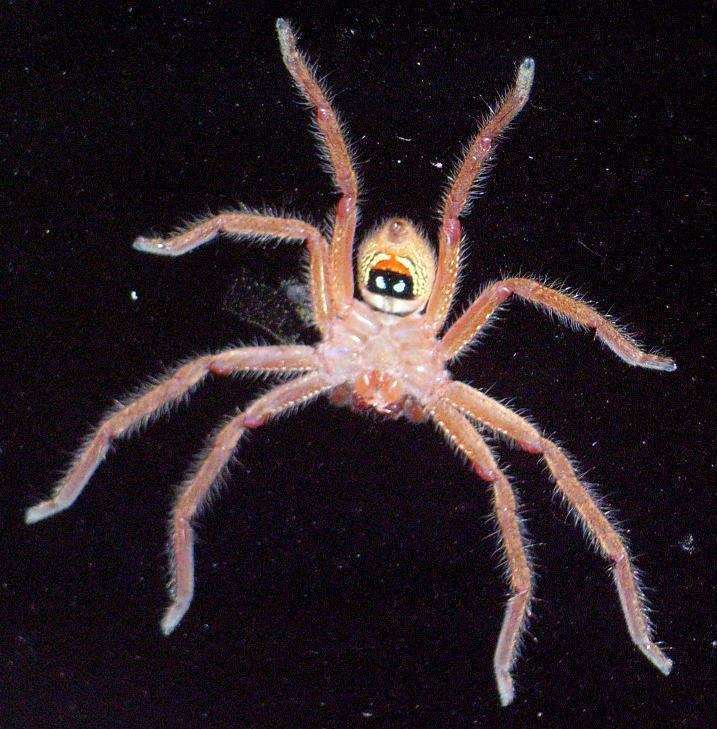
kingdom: Animalia
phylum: Arthropoda
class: Arachnida
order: Araneae
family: Sparassidae
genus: Neosparassus
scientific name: Neosparassus diana
